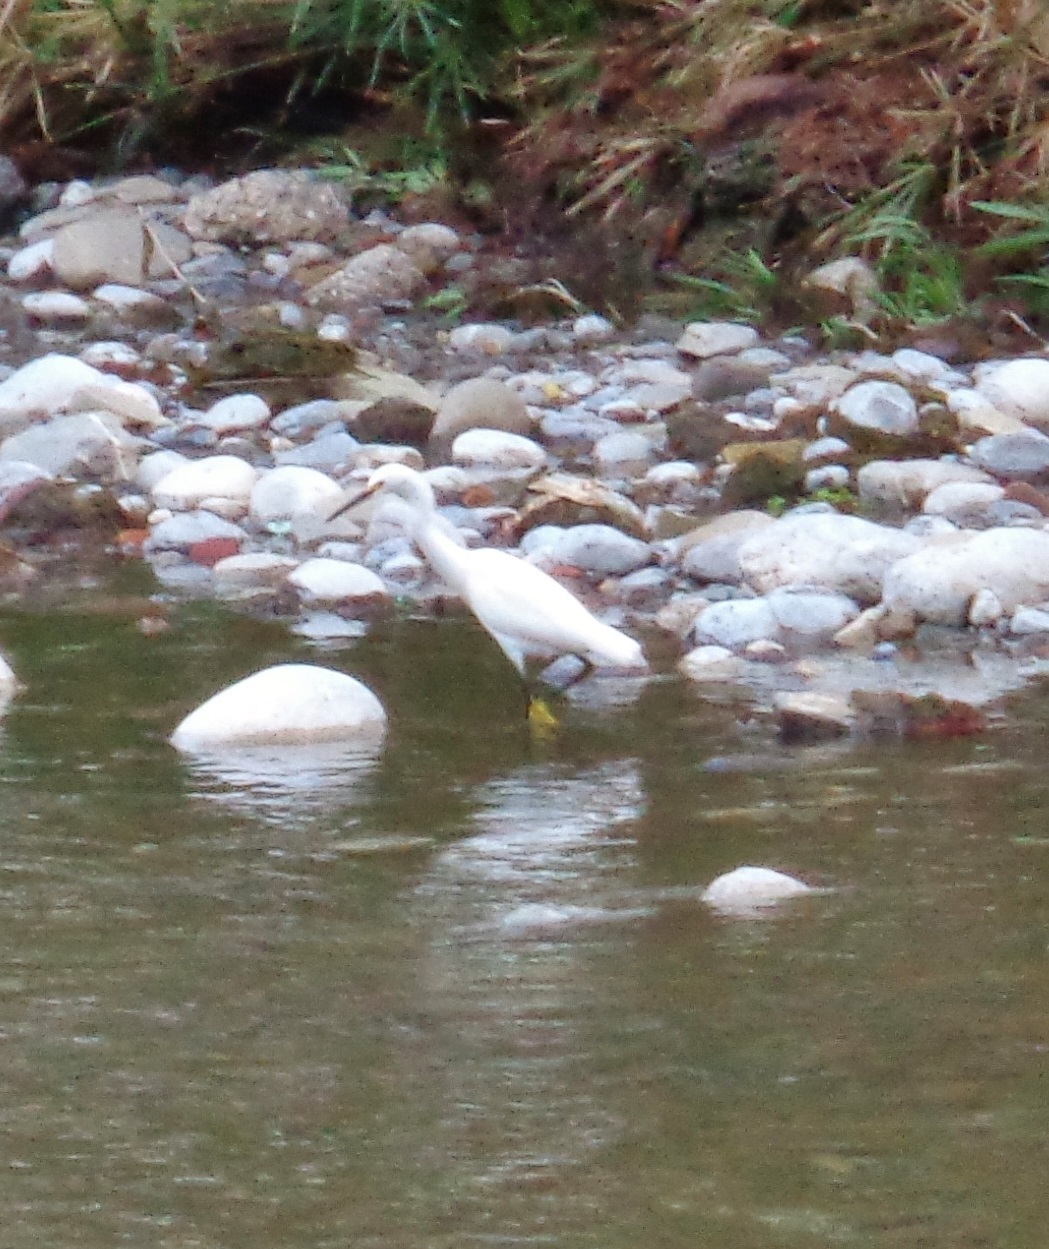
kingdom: Animalia
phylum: Chordata
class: Aves
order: Pelecaniformes
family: Ardeidae
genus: Egretta
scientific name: Egretta thula
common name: Snowy egret
